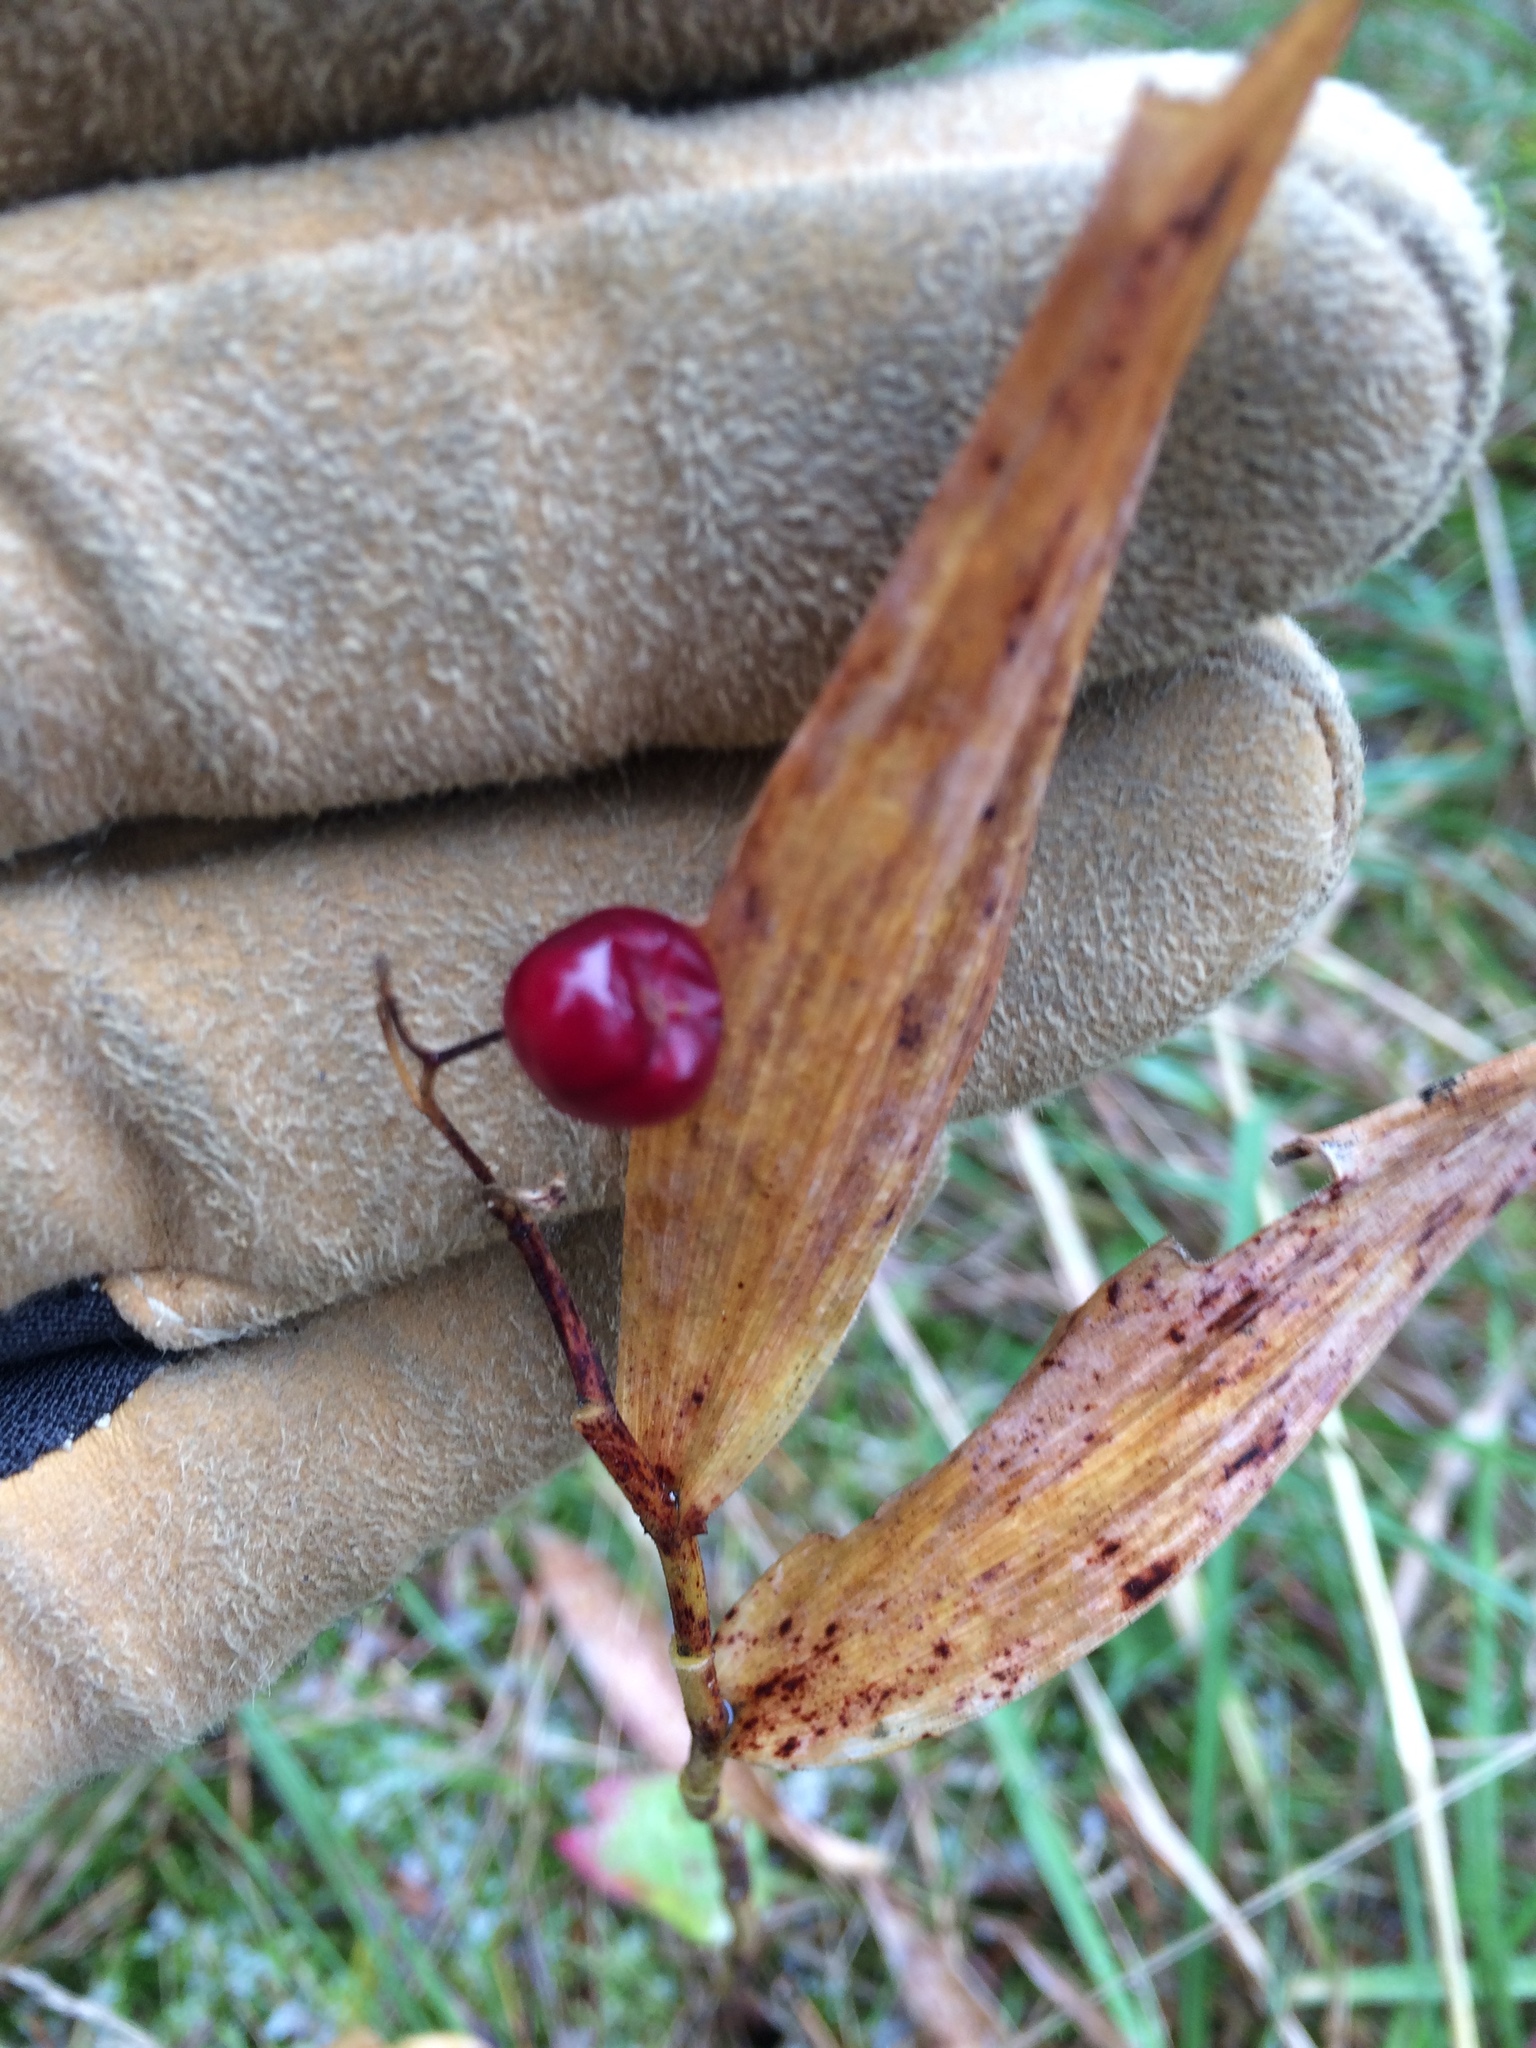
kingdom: Plantae
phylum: Tracheophyta
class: Liliopsida
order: Asparagales
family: Asparagaceae
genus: Maianthemum
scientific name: Maianthemum stellatum
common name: Little false solomon's seal
